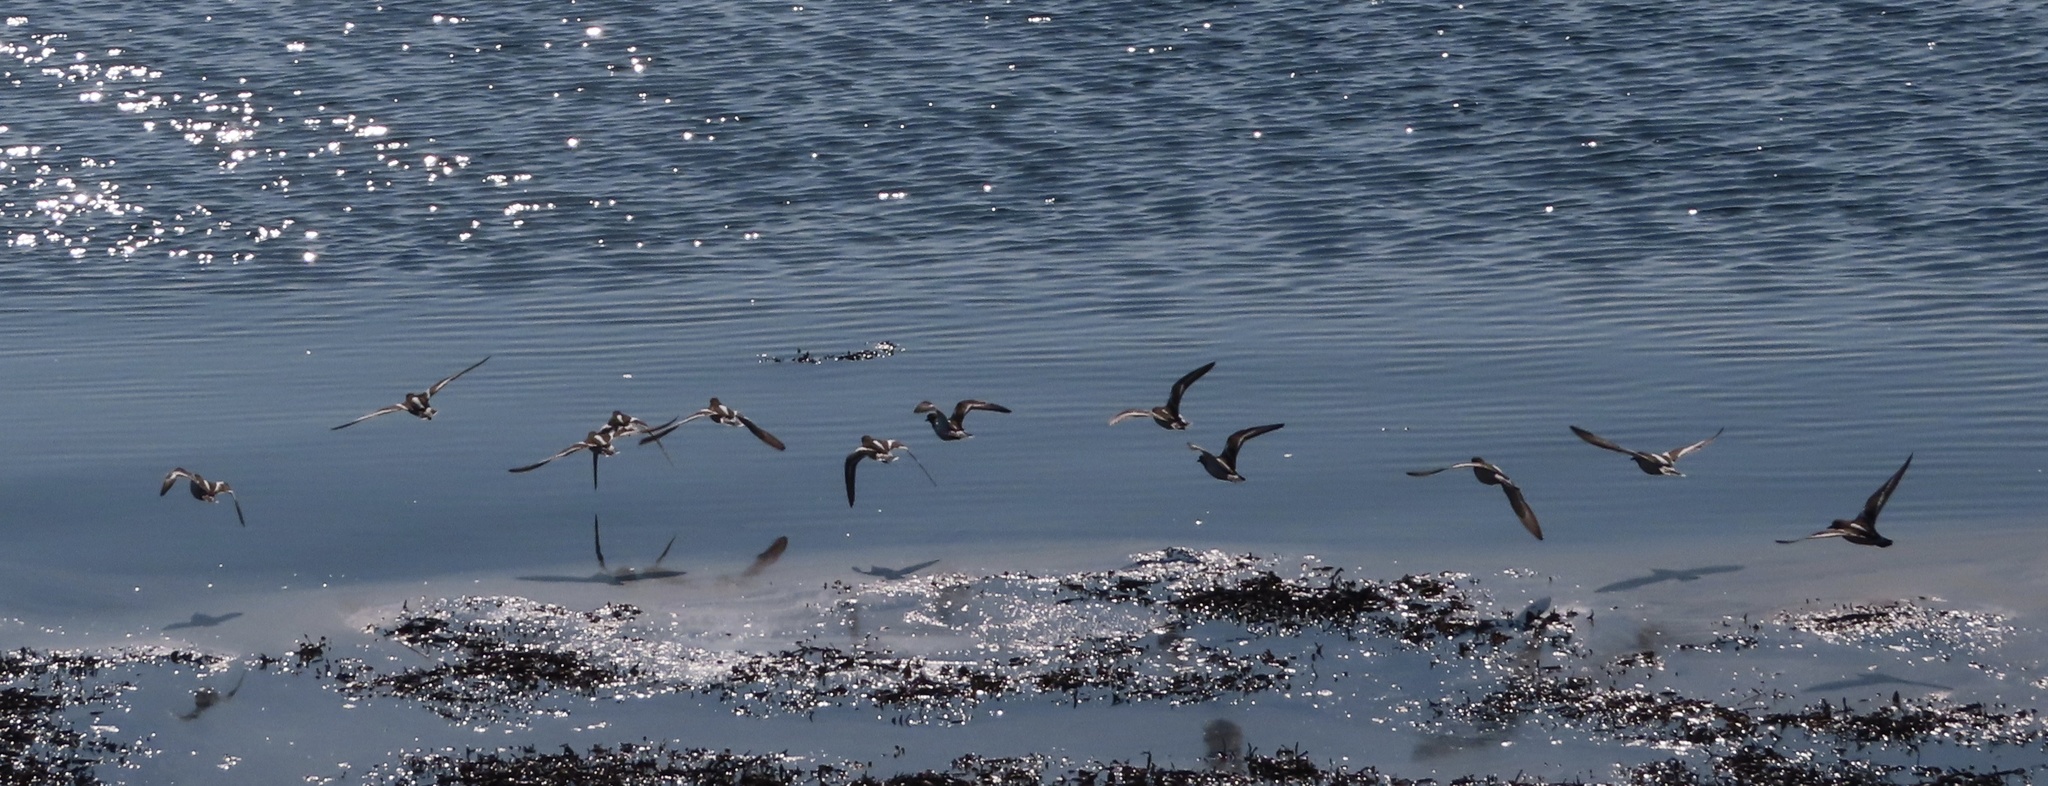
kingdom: Animalia
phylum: Chordata
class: Aves
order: Charadriiformes
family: Scolopacidae
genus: Arenaria
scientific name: Arenaria interpres
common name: Ruddy turnstone
